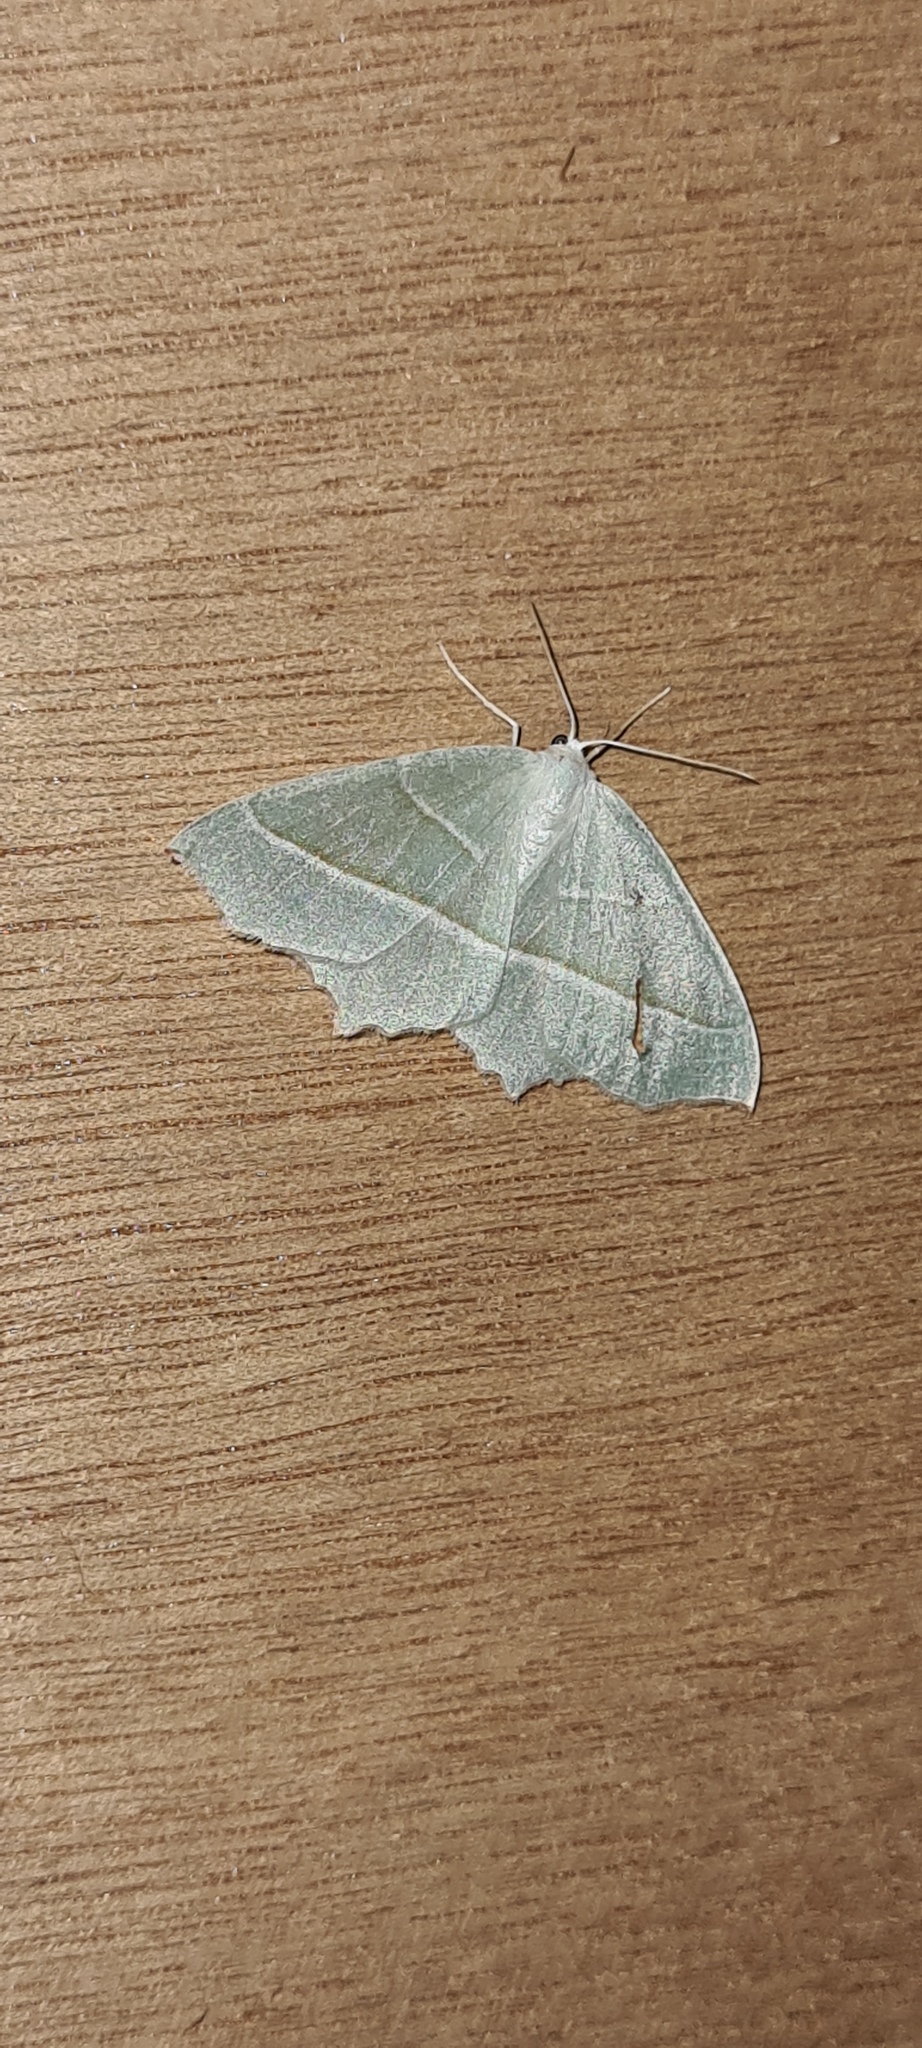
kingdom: Animalia
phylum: Arthropoda
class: Insecta
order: Lepidoptera
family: Geometridae
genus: Campaea
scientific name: Campaea margaritaria
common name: Light emerald
